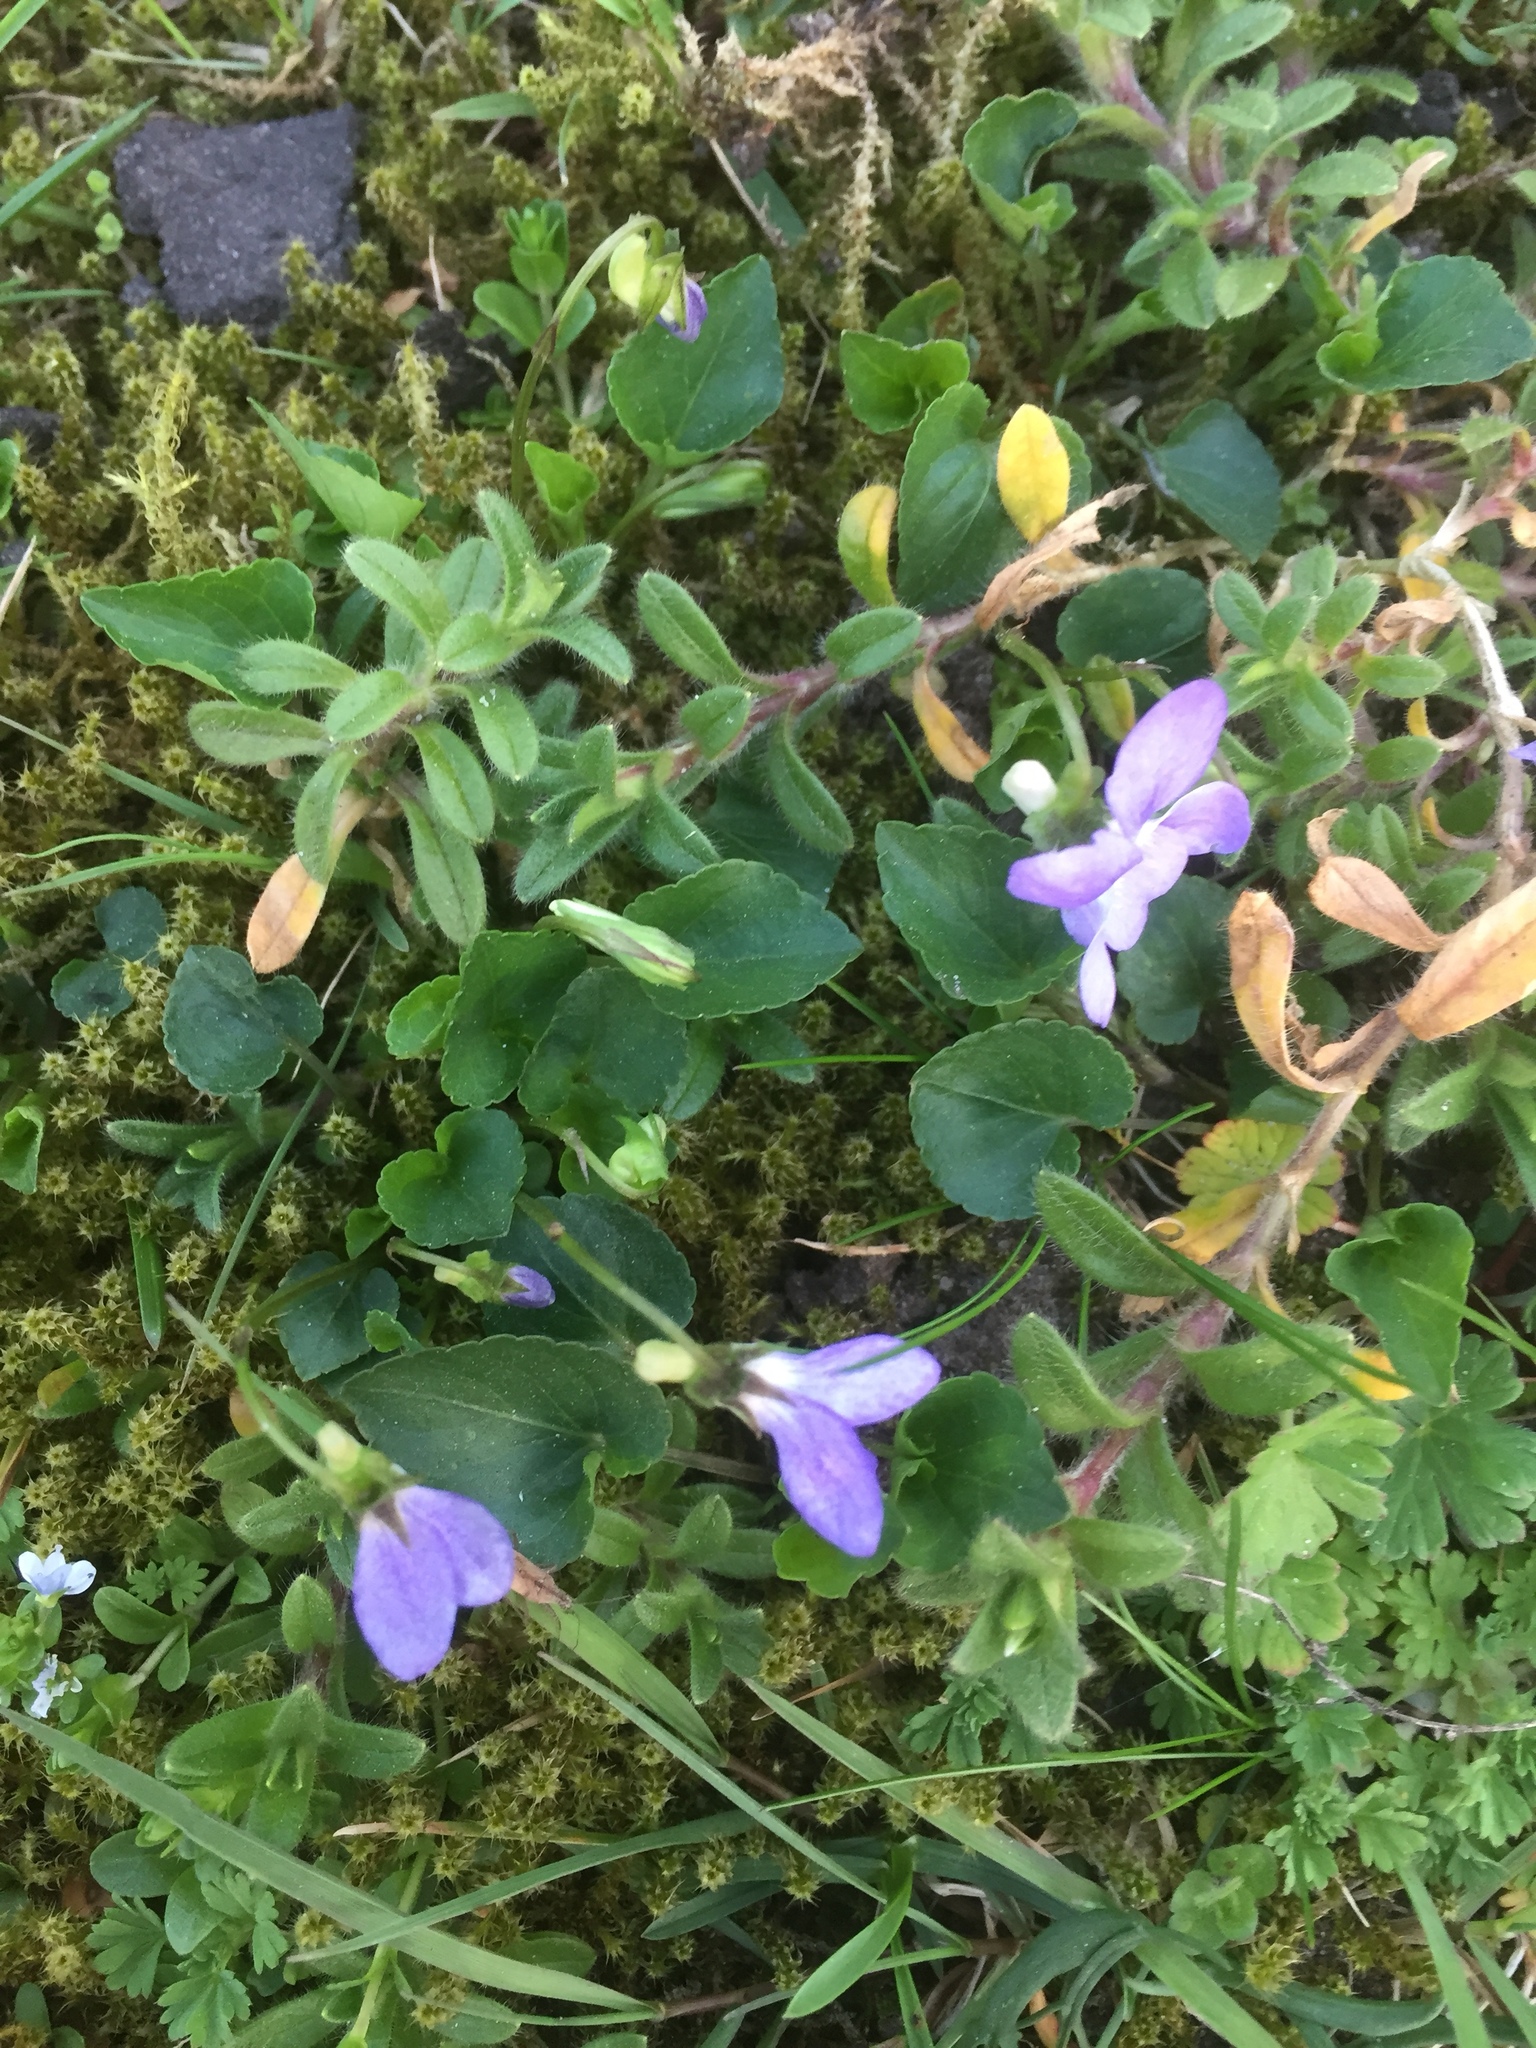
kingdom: Plantae
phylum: Bryophyta
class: Bryopsida
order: Hypnales
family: Hylocomiaceae
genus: Rhytidiadelphus
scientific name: Rhytidiadelphus squarrosus
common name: Springy turf-moss
